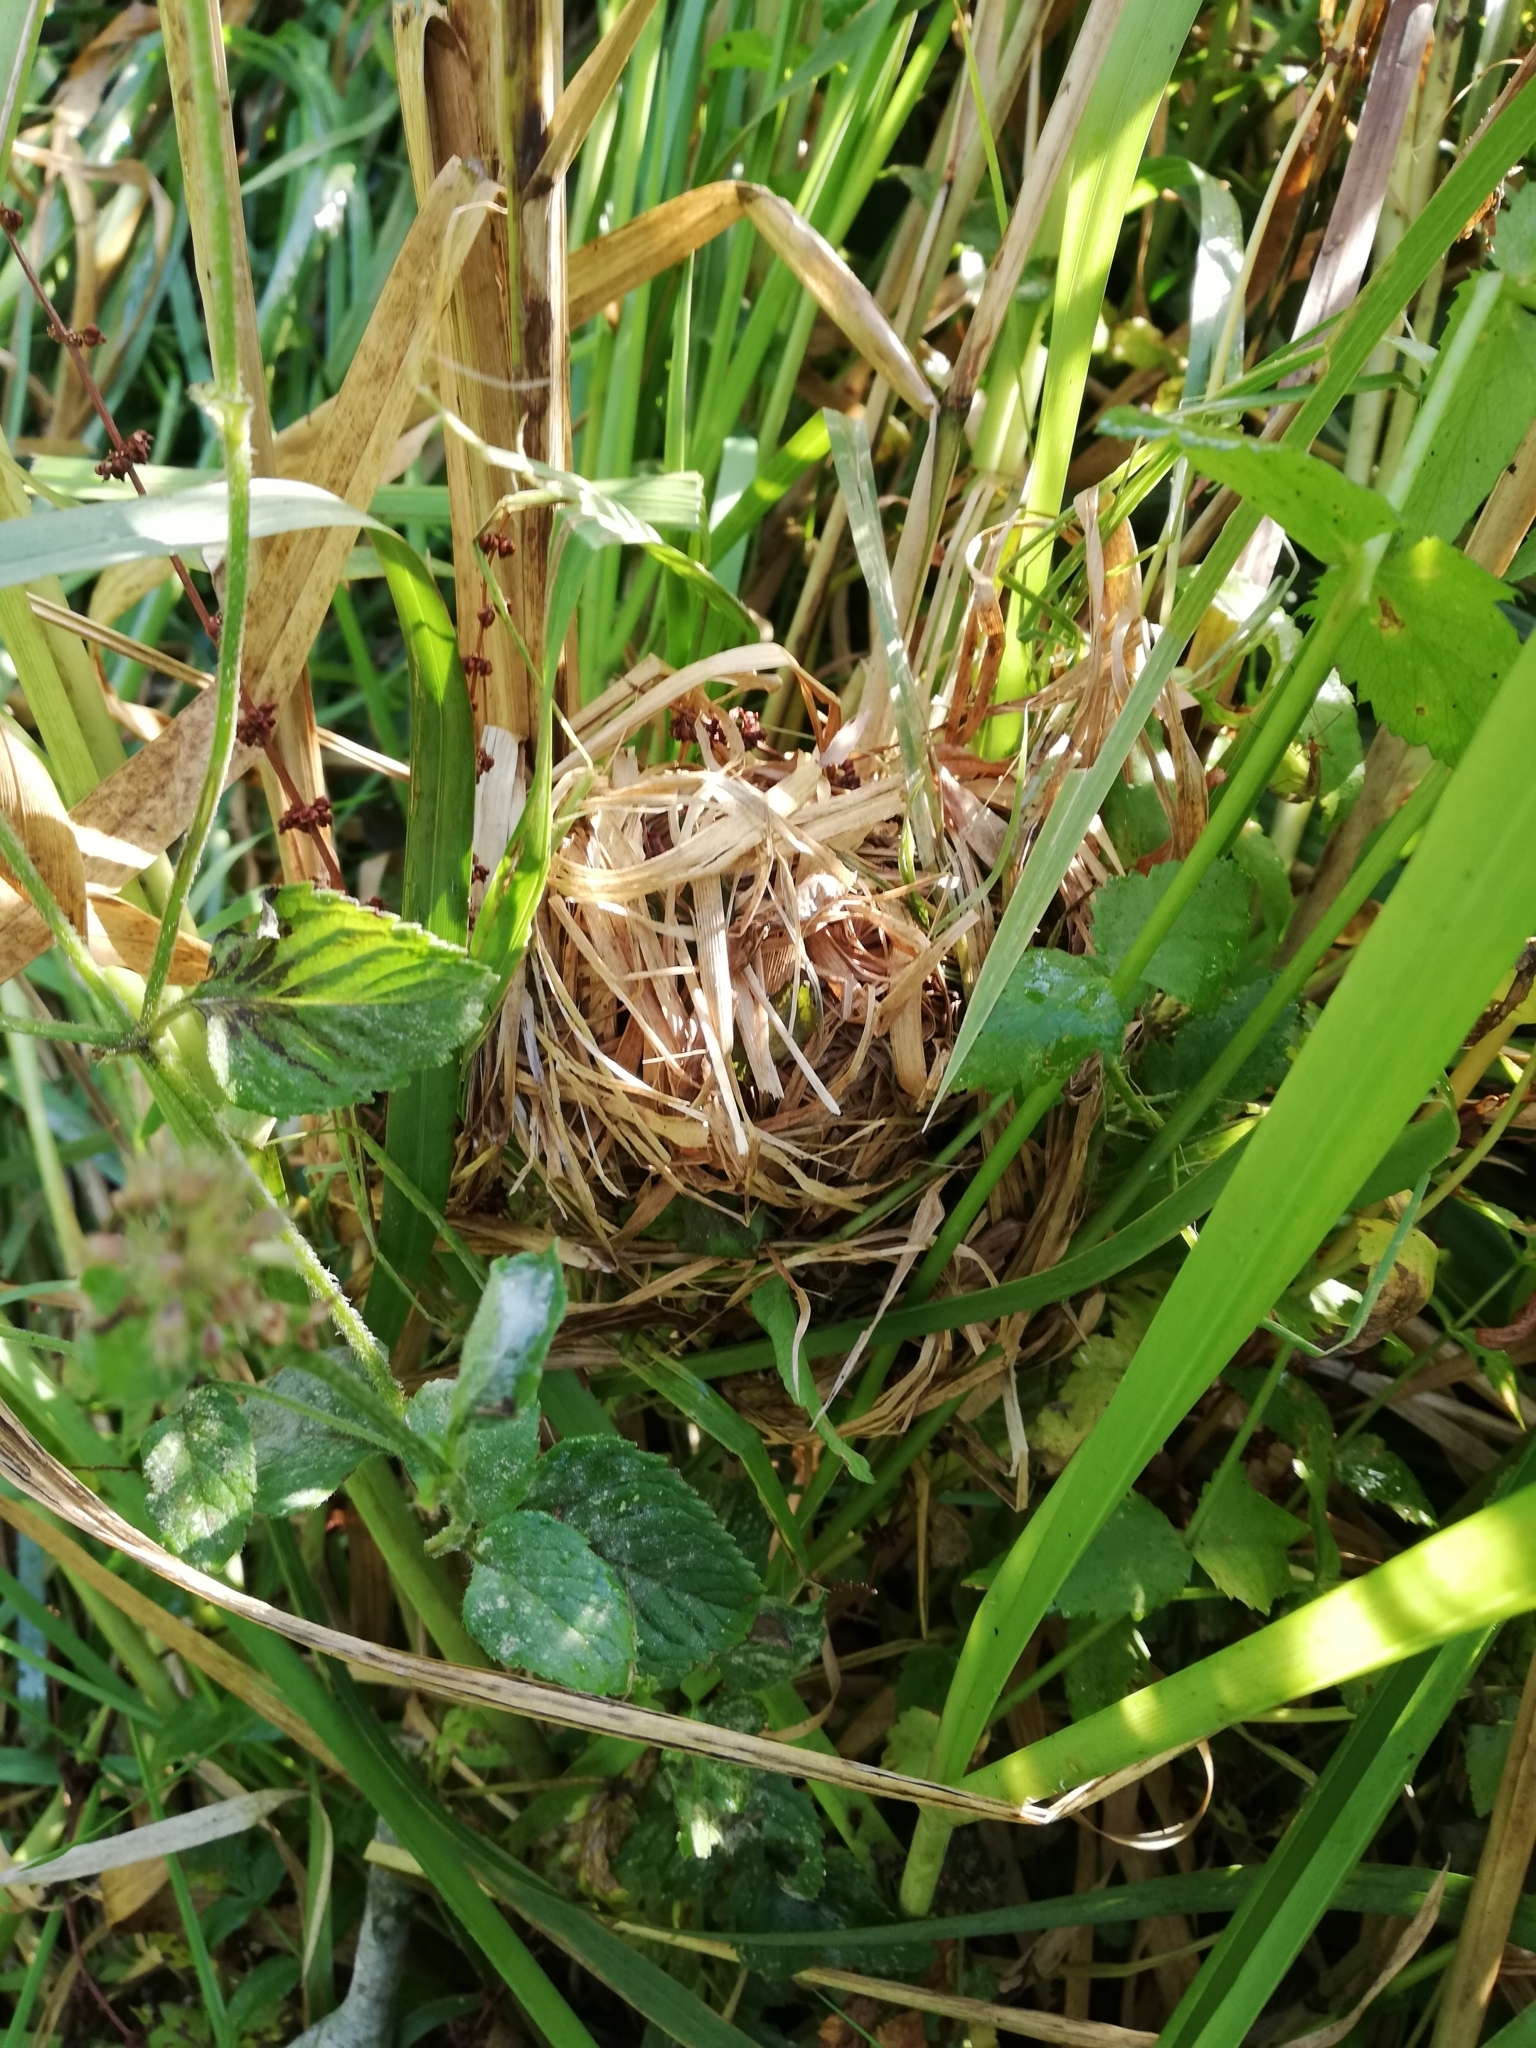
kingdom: Animalia
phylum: Chordata
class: Mammalia
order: Rodentia
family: Muridae
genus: Micromys
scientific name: Micromys minutus
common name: Harvest mouse
